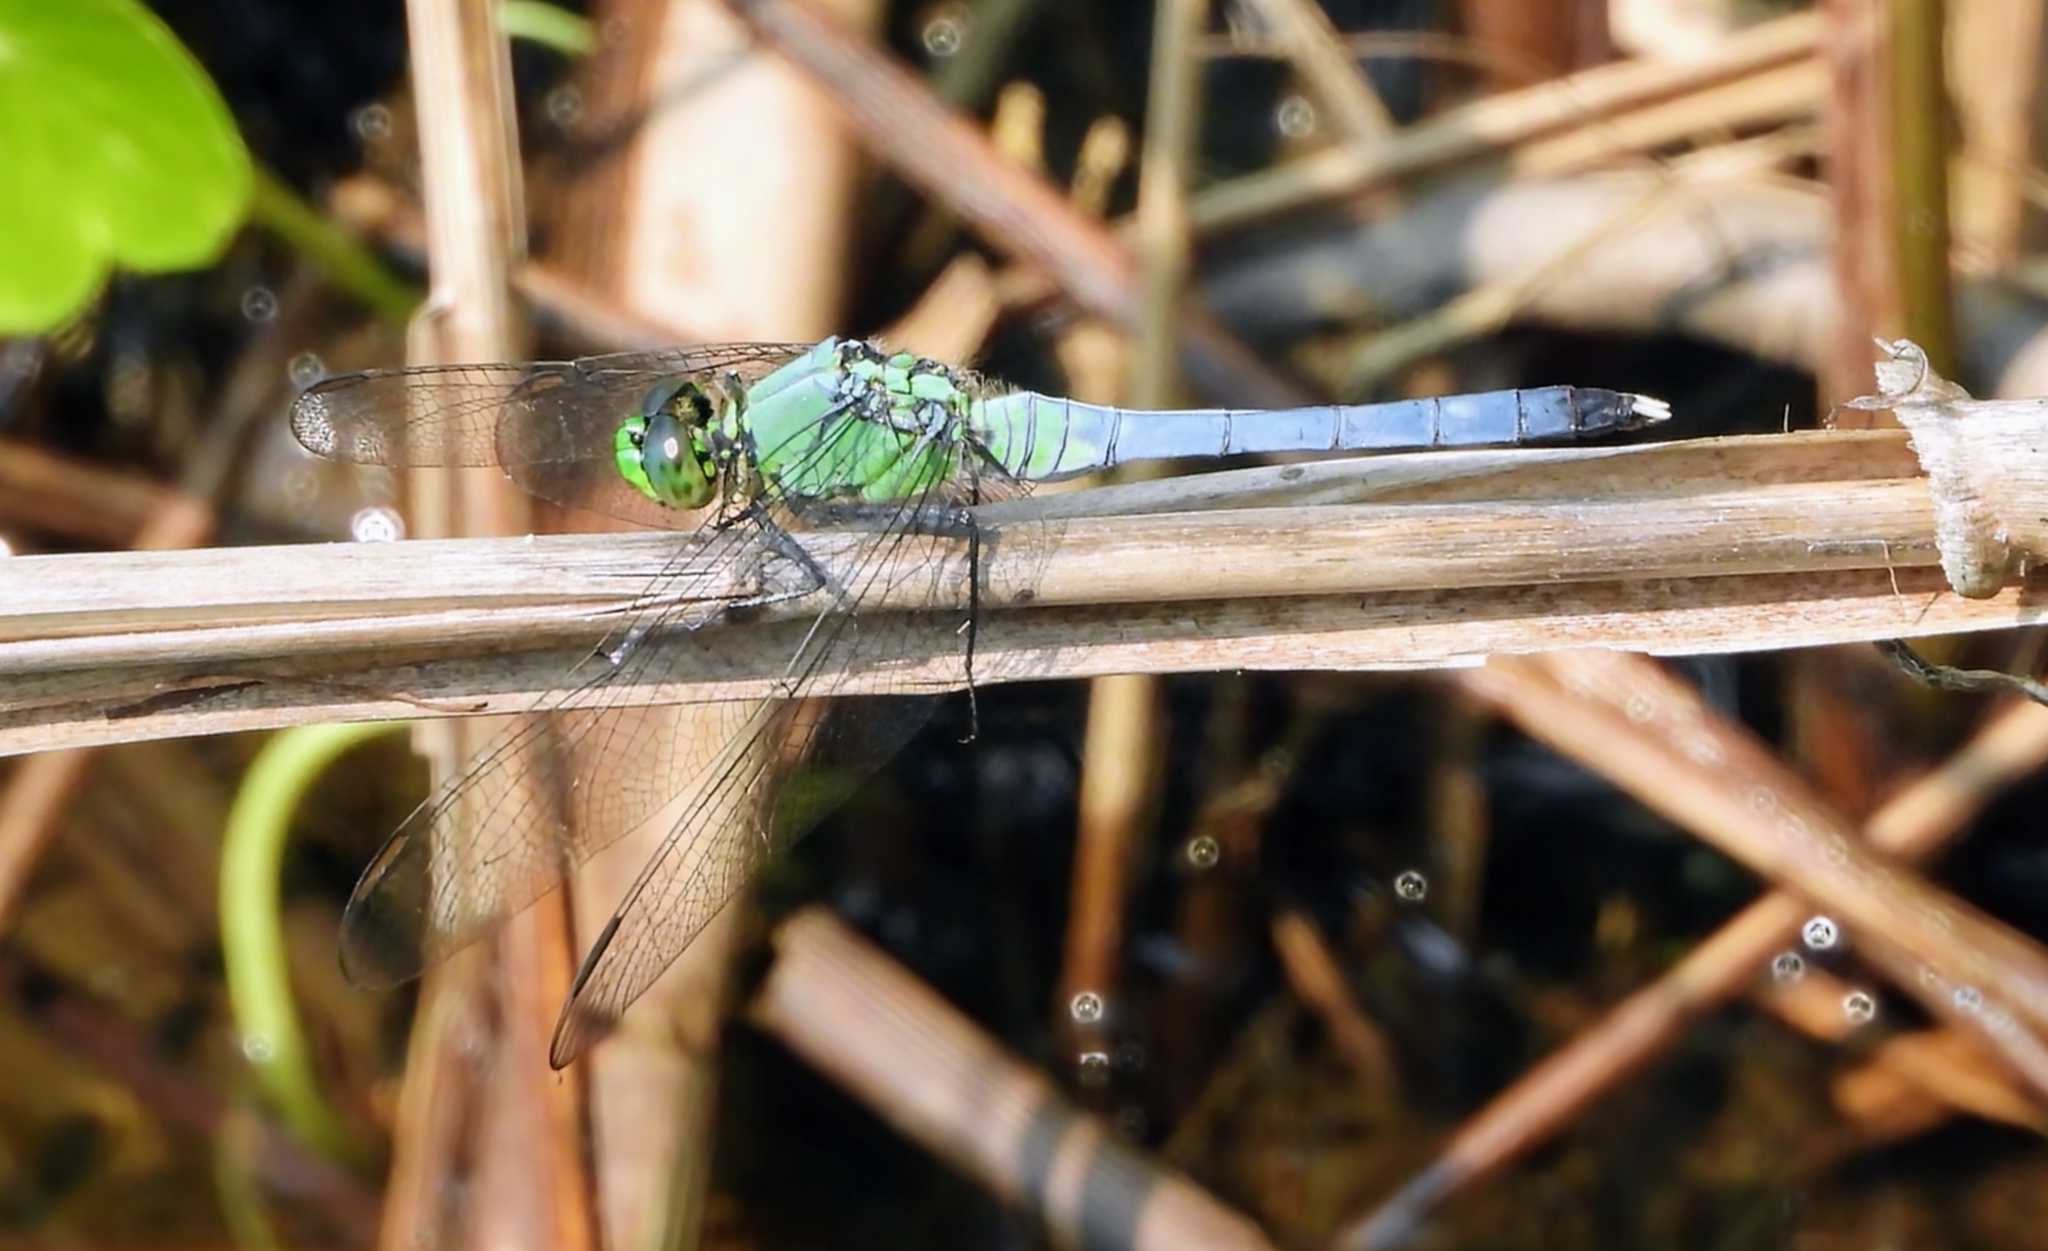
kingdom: Animalia
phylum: Arthropoda
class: Insecta
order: Odonata
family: Libellulidae
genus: Erythemis
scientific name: Erythemis simplicicollis
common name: Eastern pondhawk
